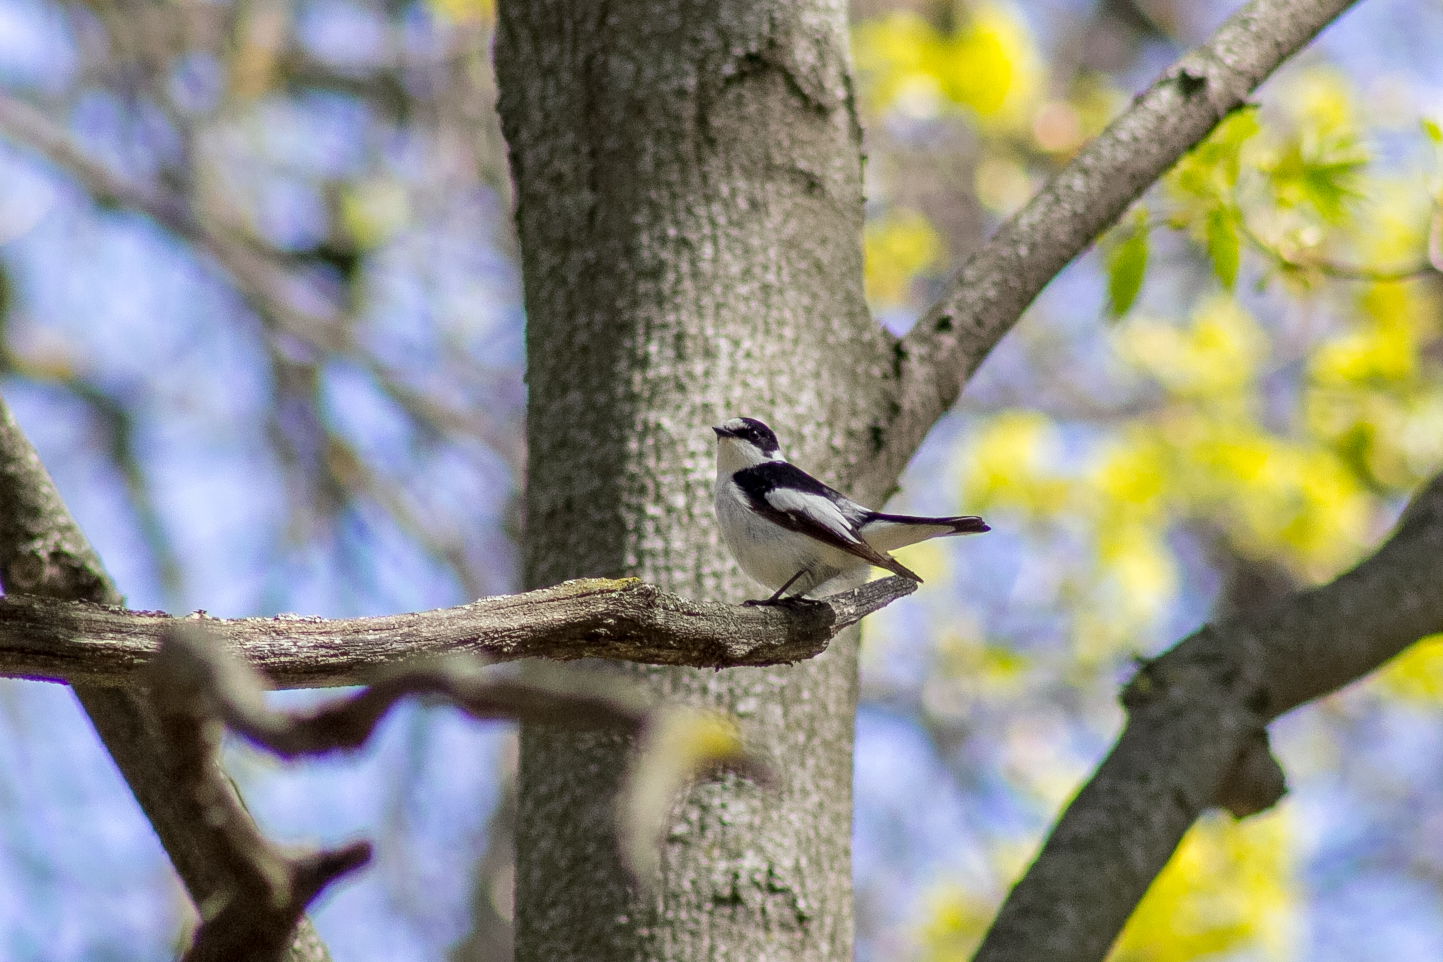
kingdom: Animalia
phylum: Chordata
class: Aves
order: Passeriformes
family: Muscicapidae
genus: Ficedula
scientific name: Ficedula albicollis
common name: Collared flycatcher
